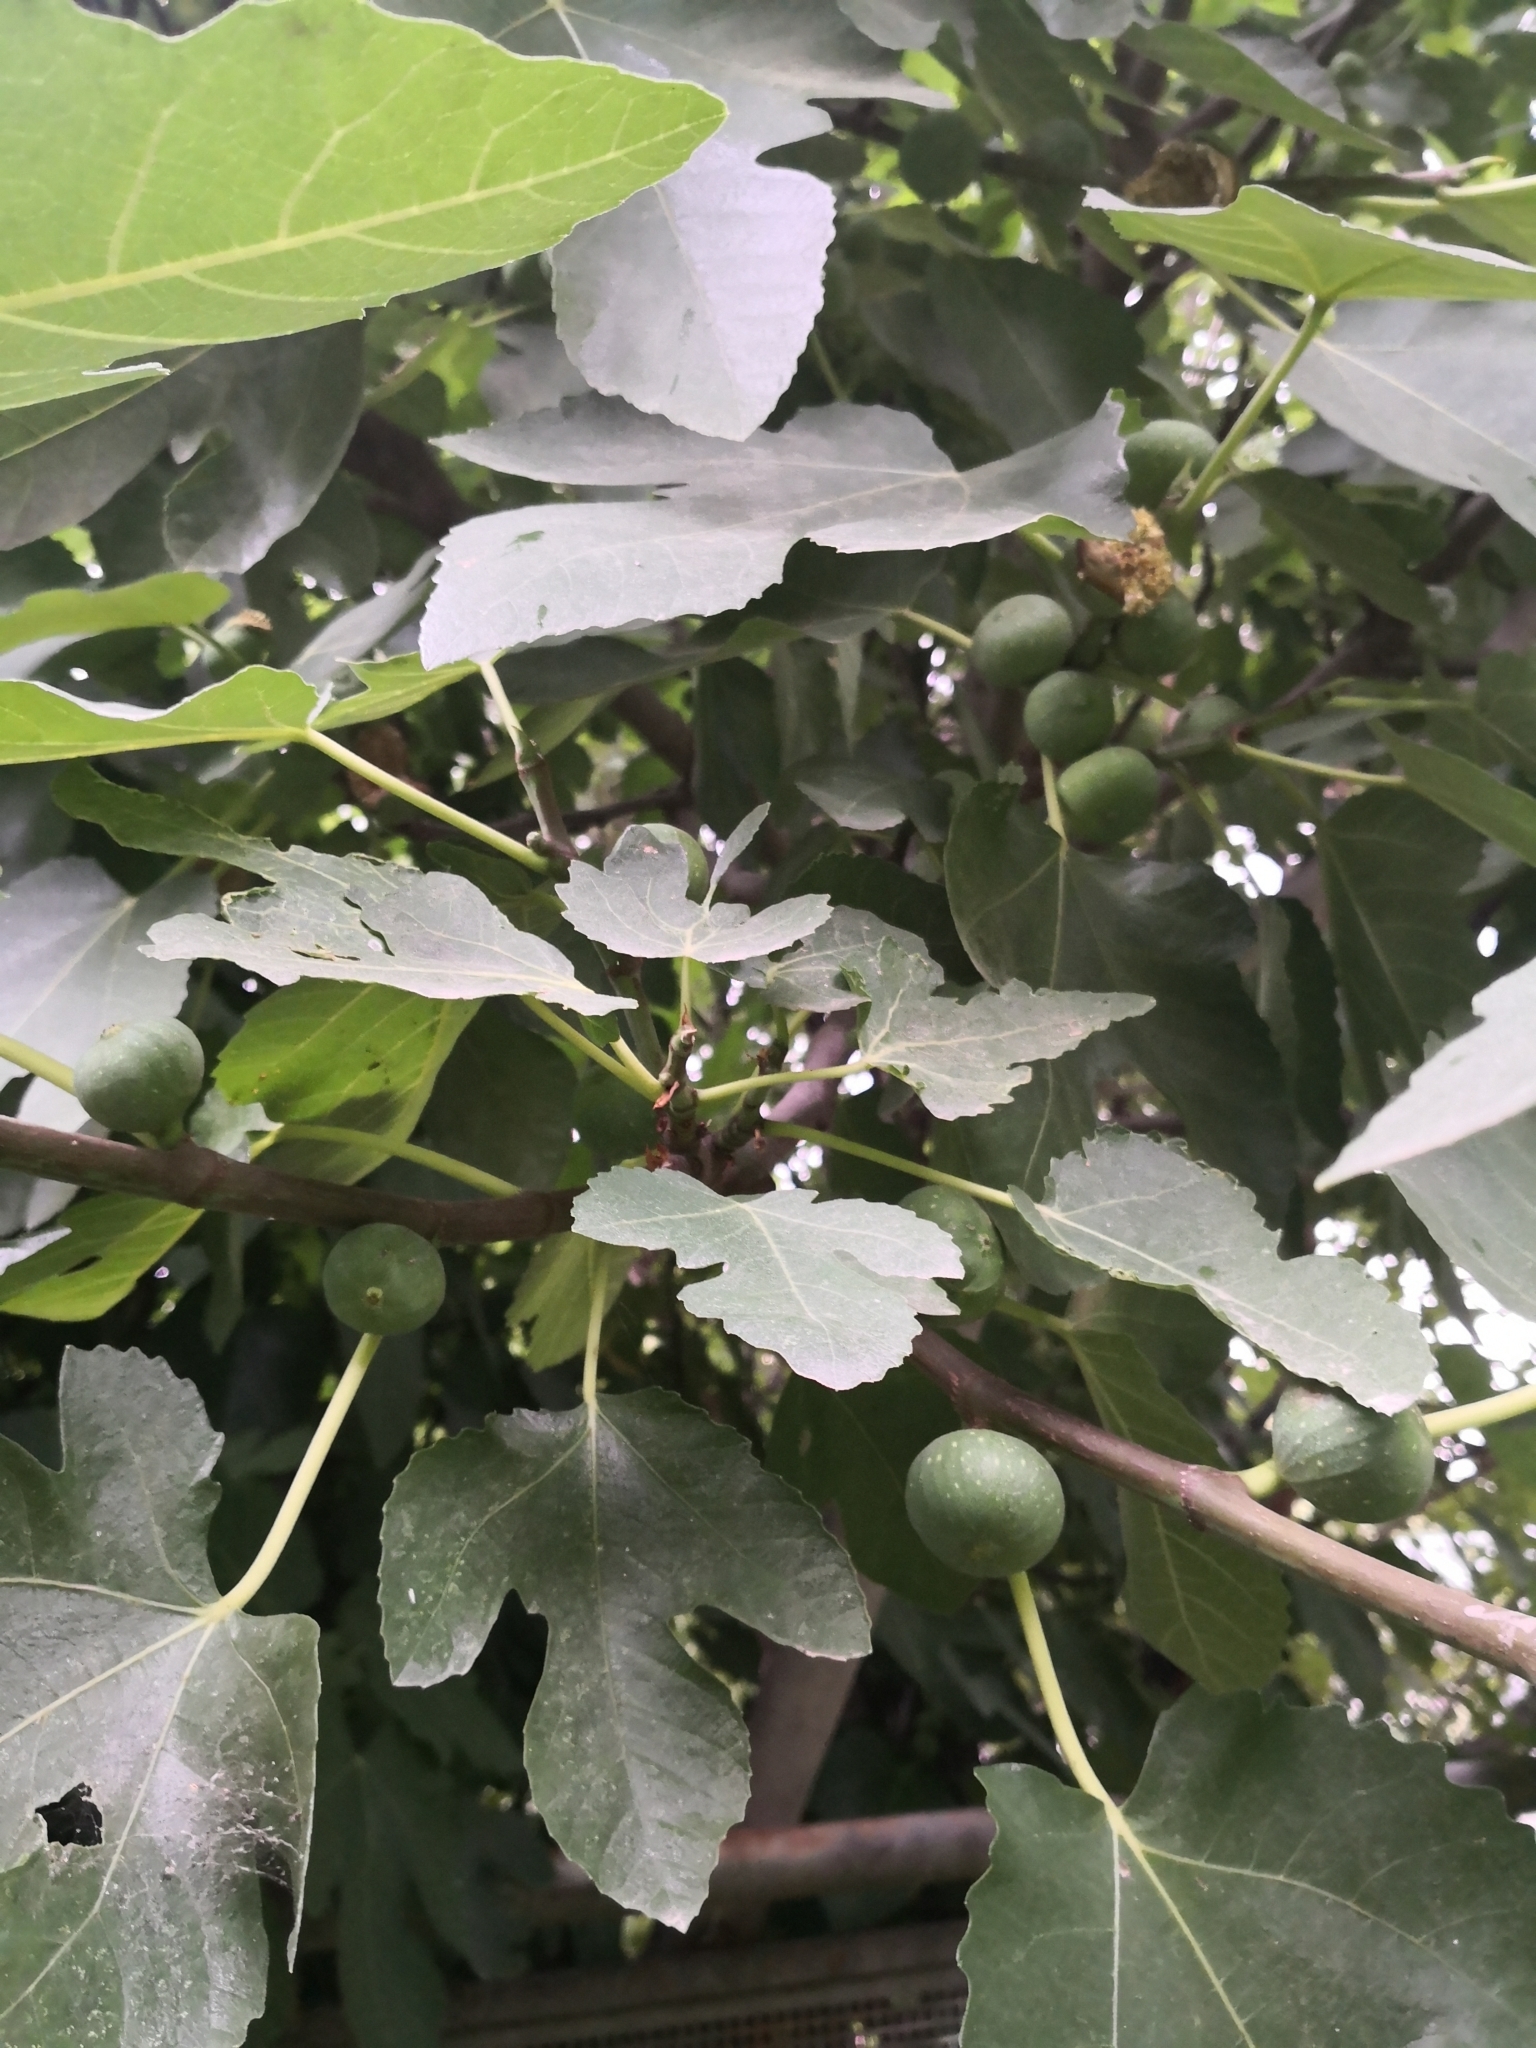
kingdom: Plantae
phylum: Tracheophyta
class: Magnoliopsida
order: Rosales
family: Moraceae
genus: Ficus
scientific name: Ficus carica
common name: Fig
